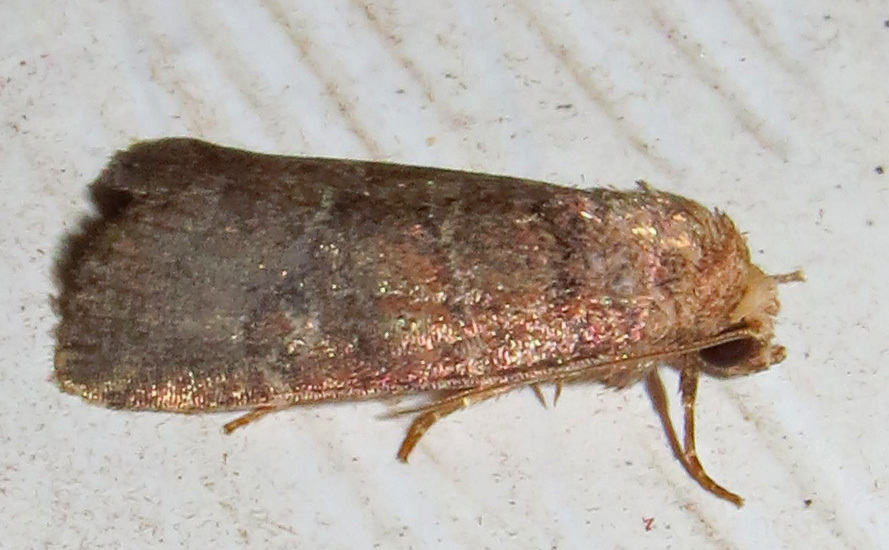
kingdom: Animalia
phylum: Arthropoda
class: Insecta
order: Lepidoptera
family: Noctuidae
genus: Elaphria
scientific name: Elaphria grata
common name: Grateful midget moth
